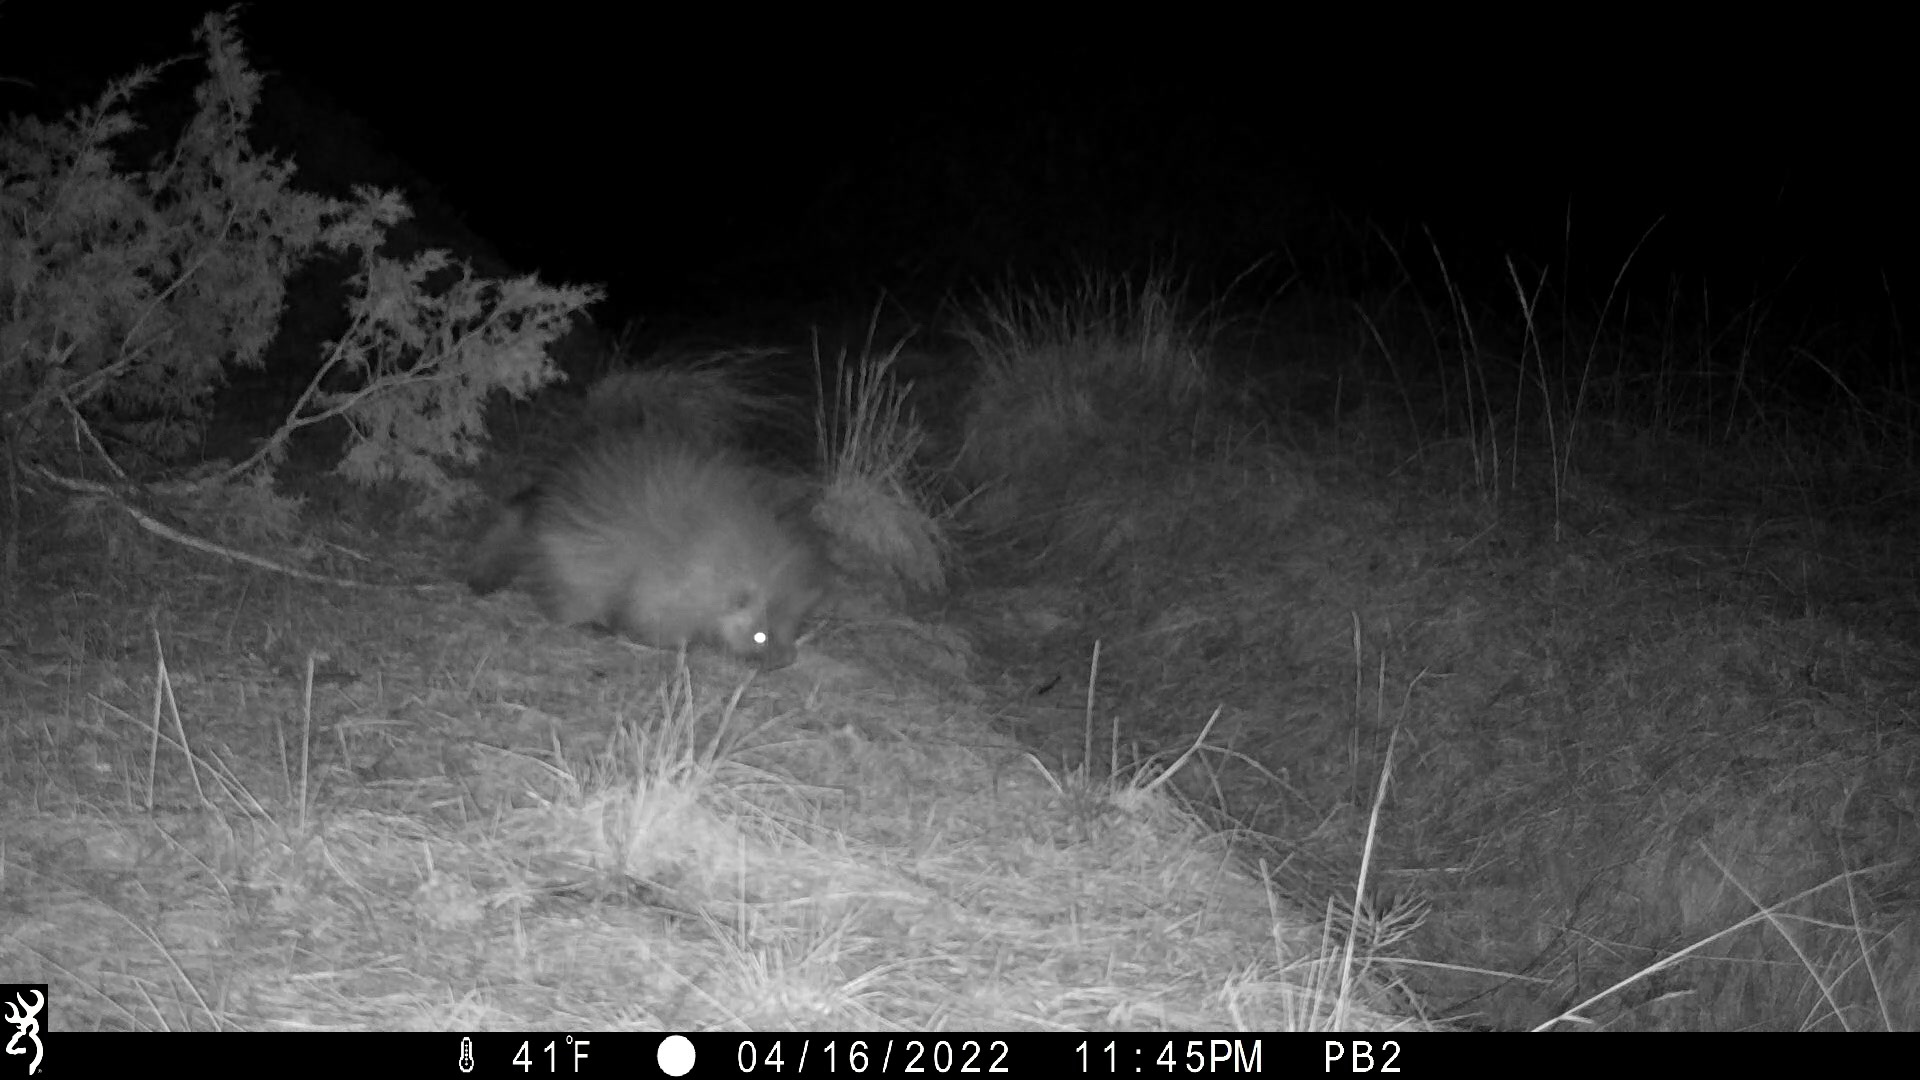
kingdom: Animalia
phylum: Chordata
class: Mammalia
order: Rodentia
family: Erethizontidae
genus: Erethizon
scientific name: Erethizon dorsatus
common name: North american porcupine
